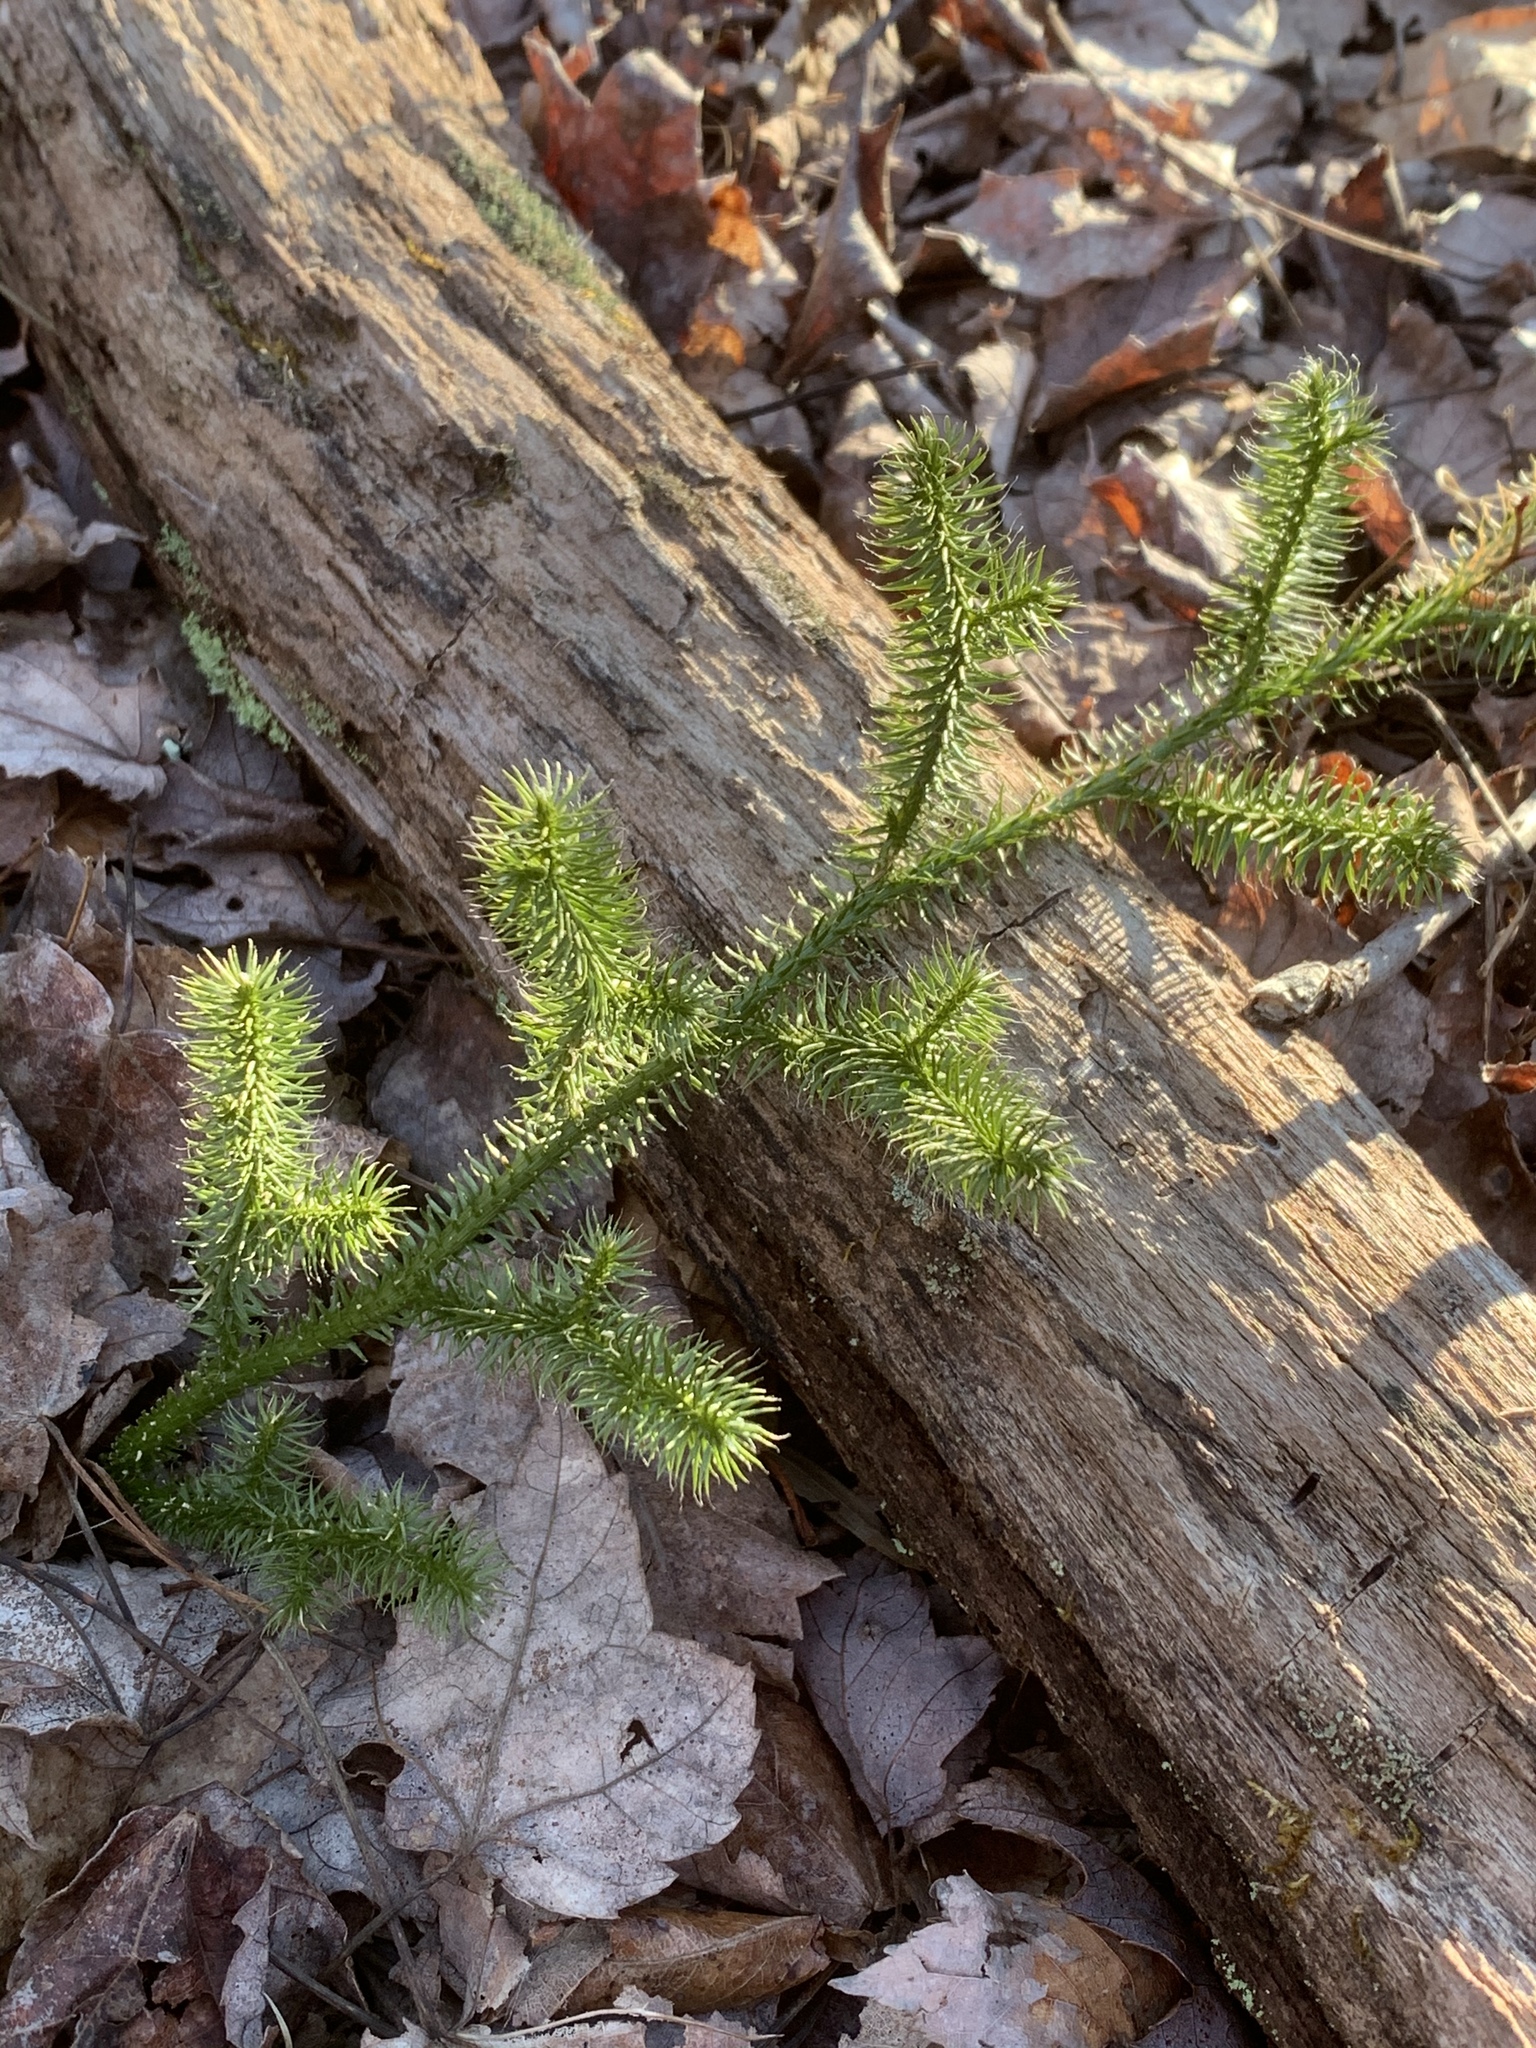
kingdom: Plantae
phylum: Tracheophyta
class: Lycopodiopsida
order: Lycopodiales
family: Lycopodiaceae
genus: Lycopodium
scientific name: Lycopodium clavatum
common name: Stag's-horn clubmoss
